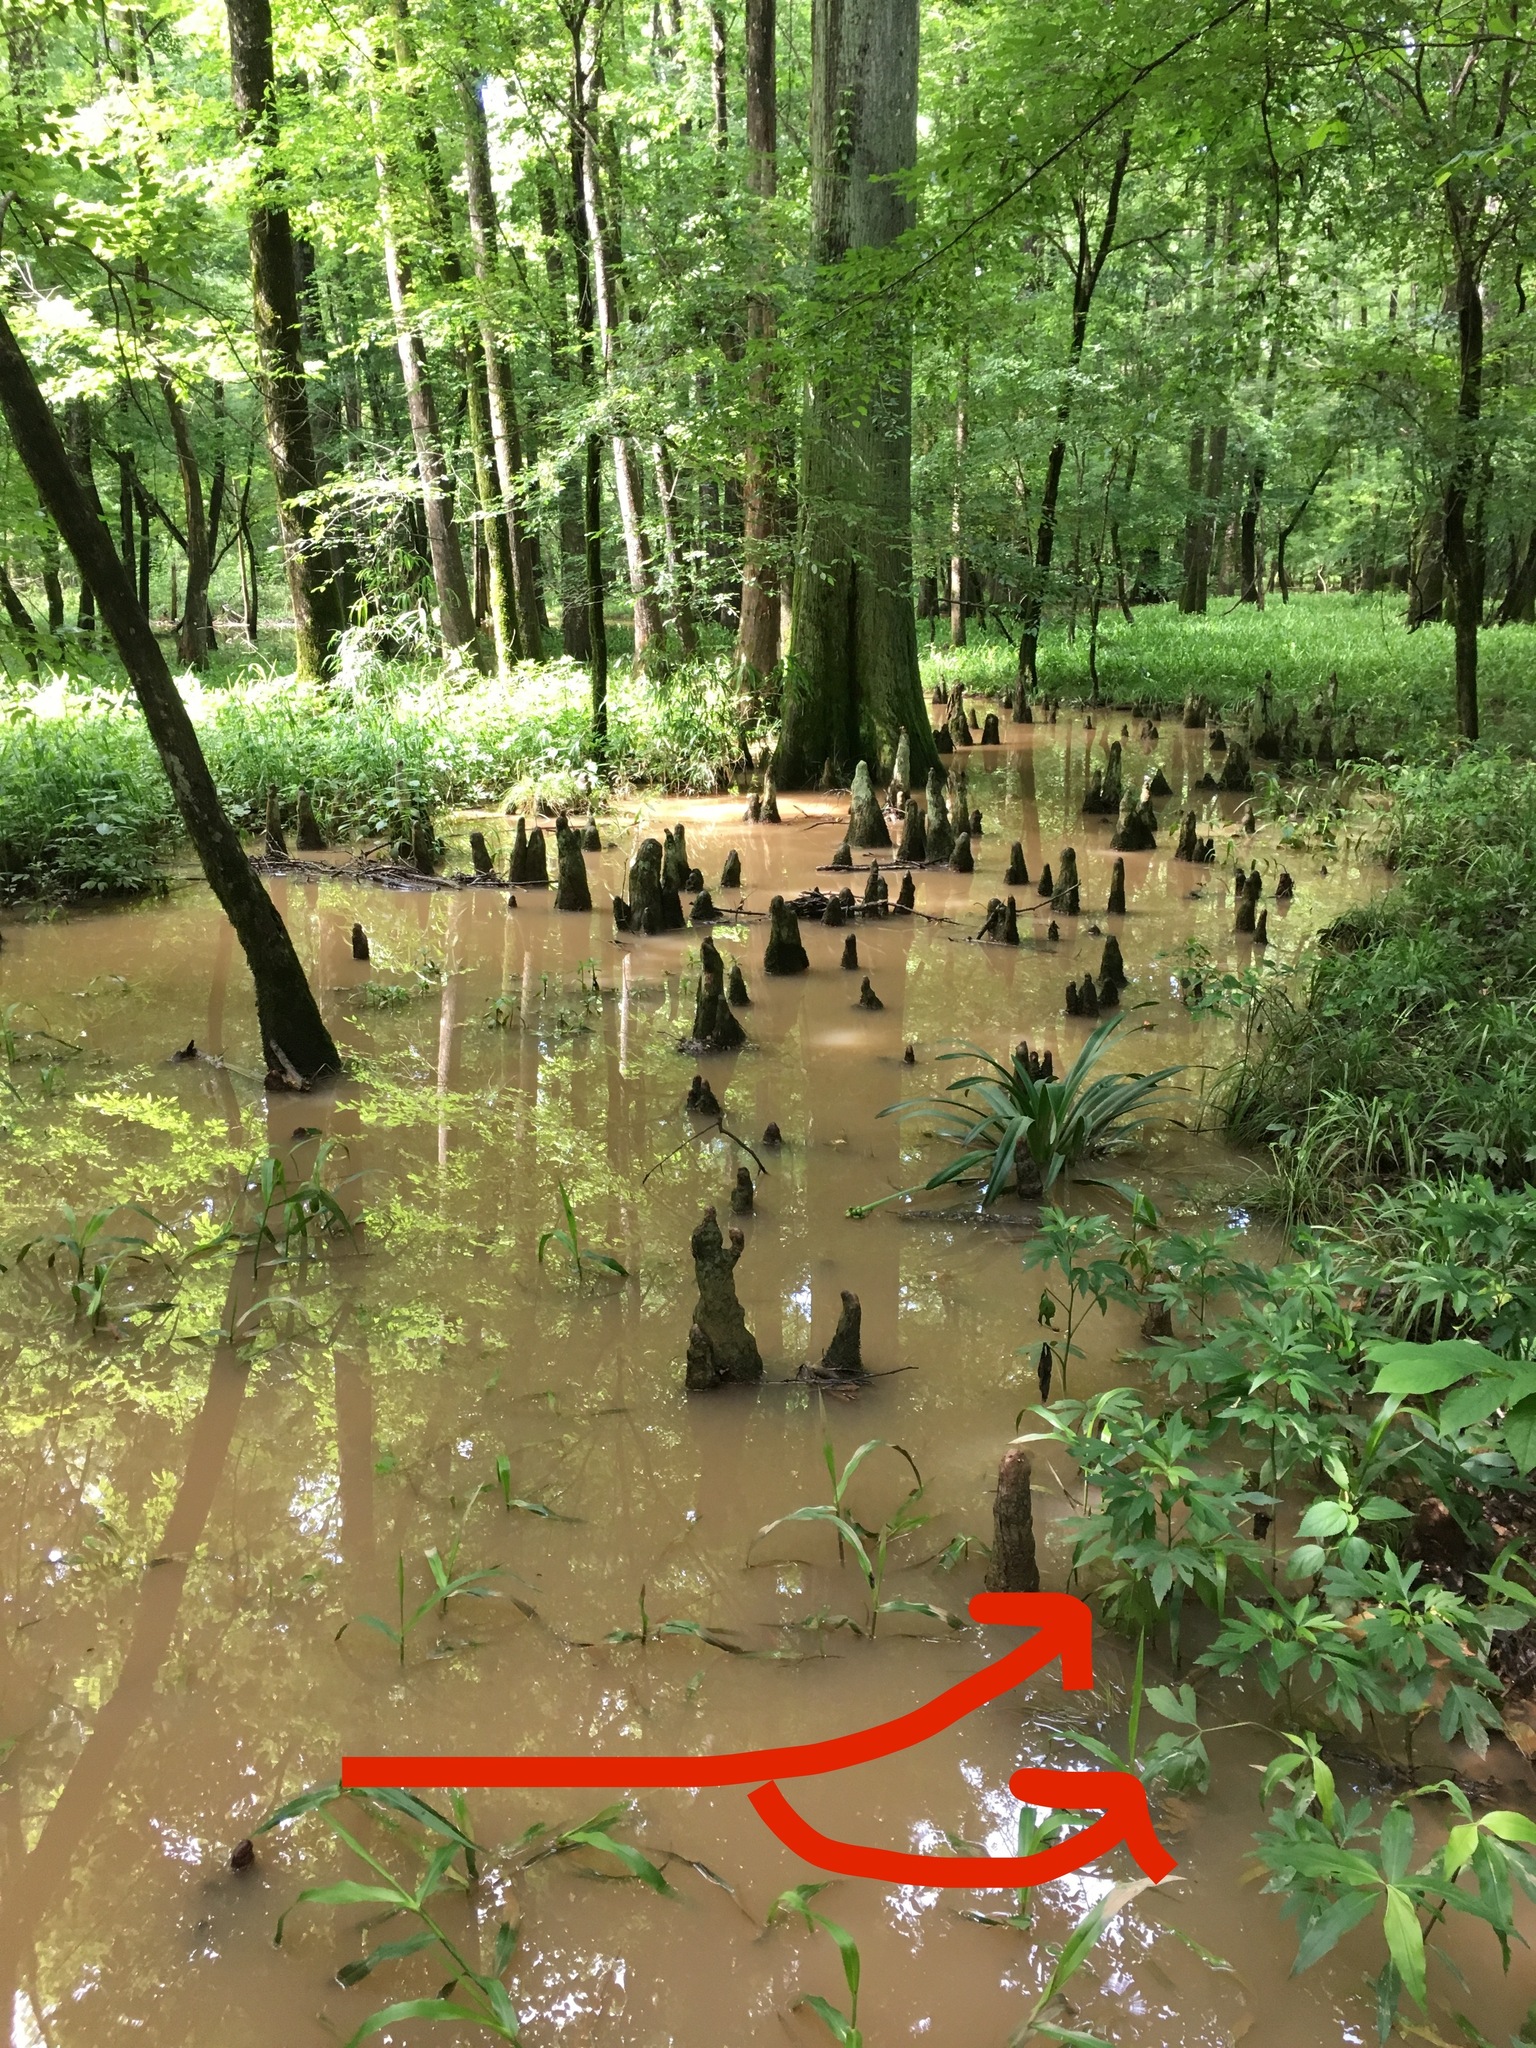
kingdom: Plantae
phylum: Tracheophyta
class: Magnoliopsida
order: Asterales
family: Asteraceae
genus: Ambrosia
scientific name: Ambrosia trifida
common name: Giant ragweed
